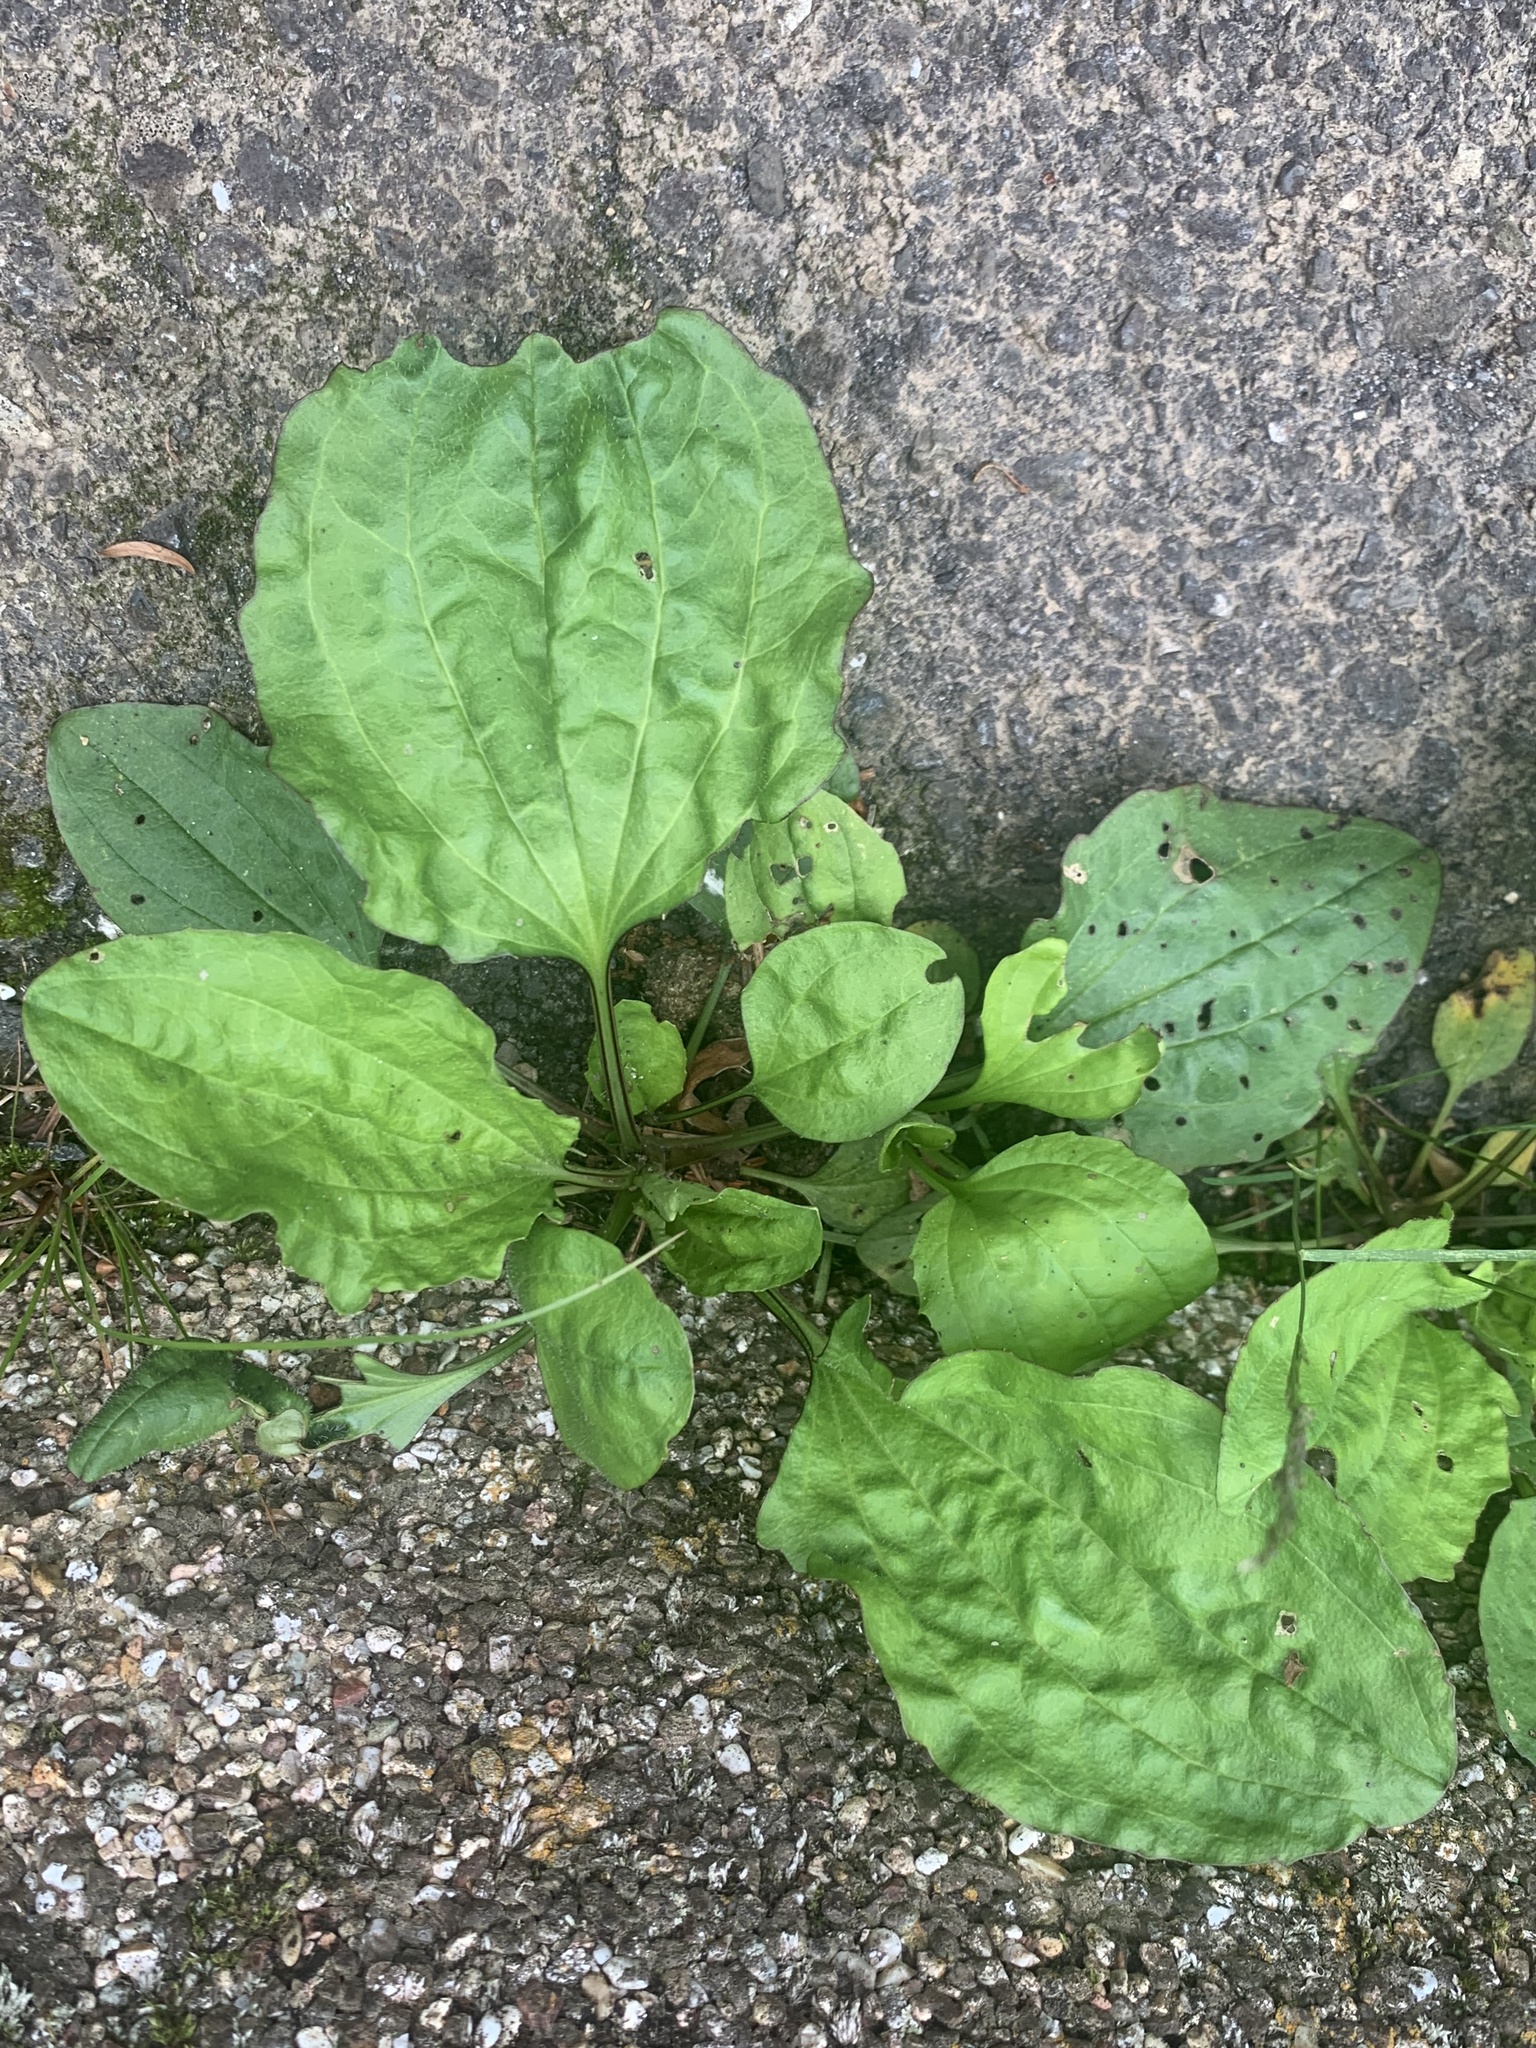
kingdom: Plantae
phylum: Tracheophyta
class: Magnoliopsida
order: Lamiales
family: Plantaginaceae
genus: Plantago
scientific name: Plantago asiatica
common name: Psyllium
